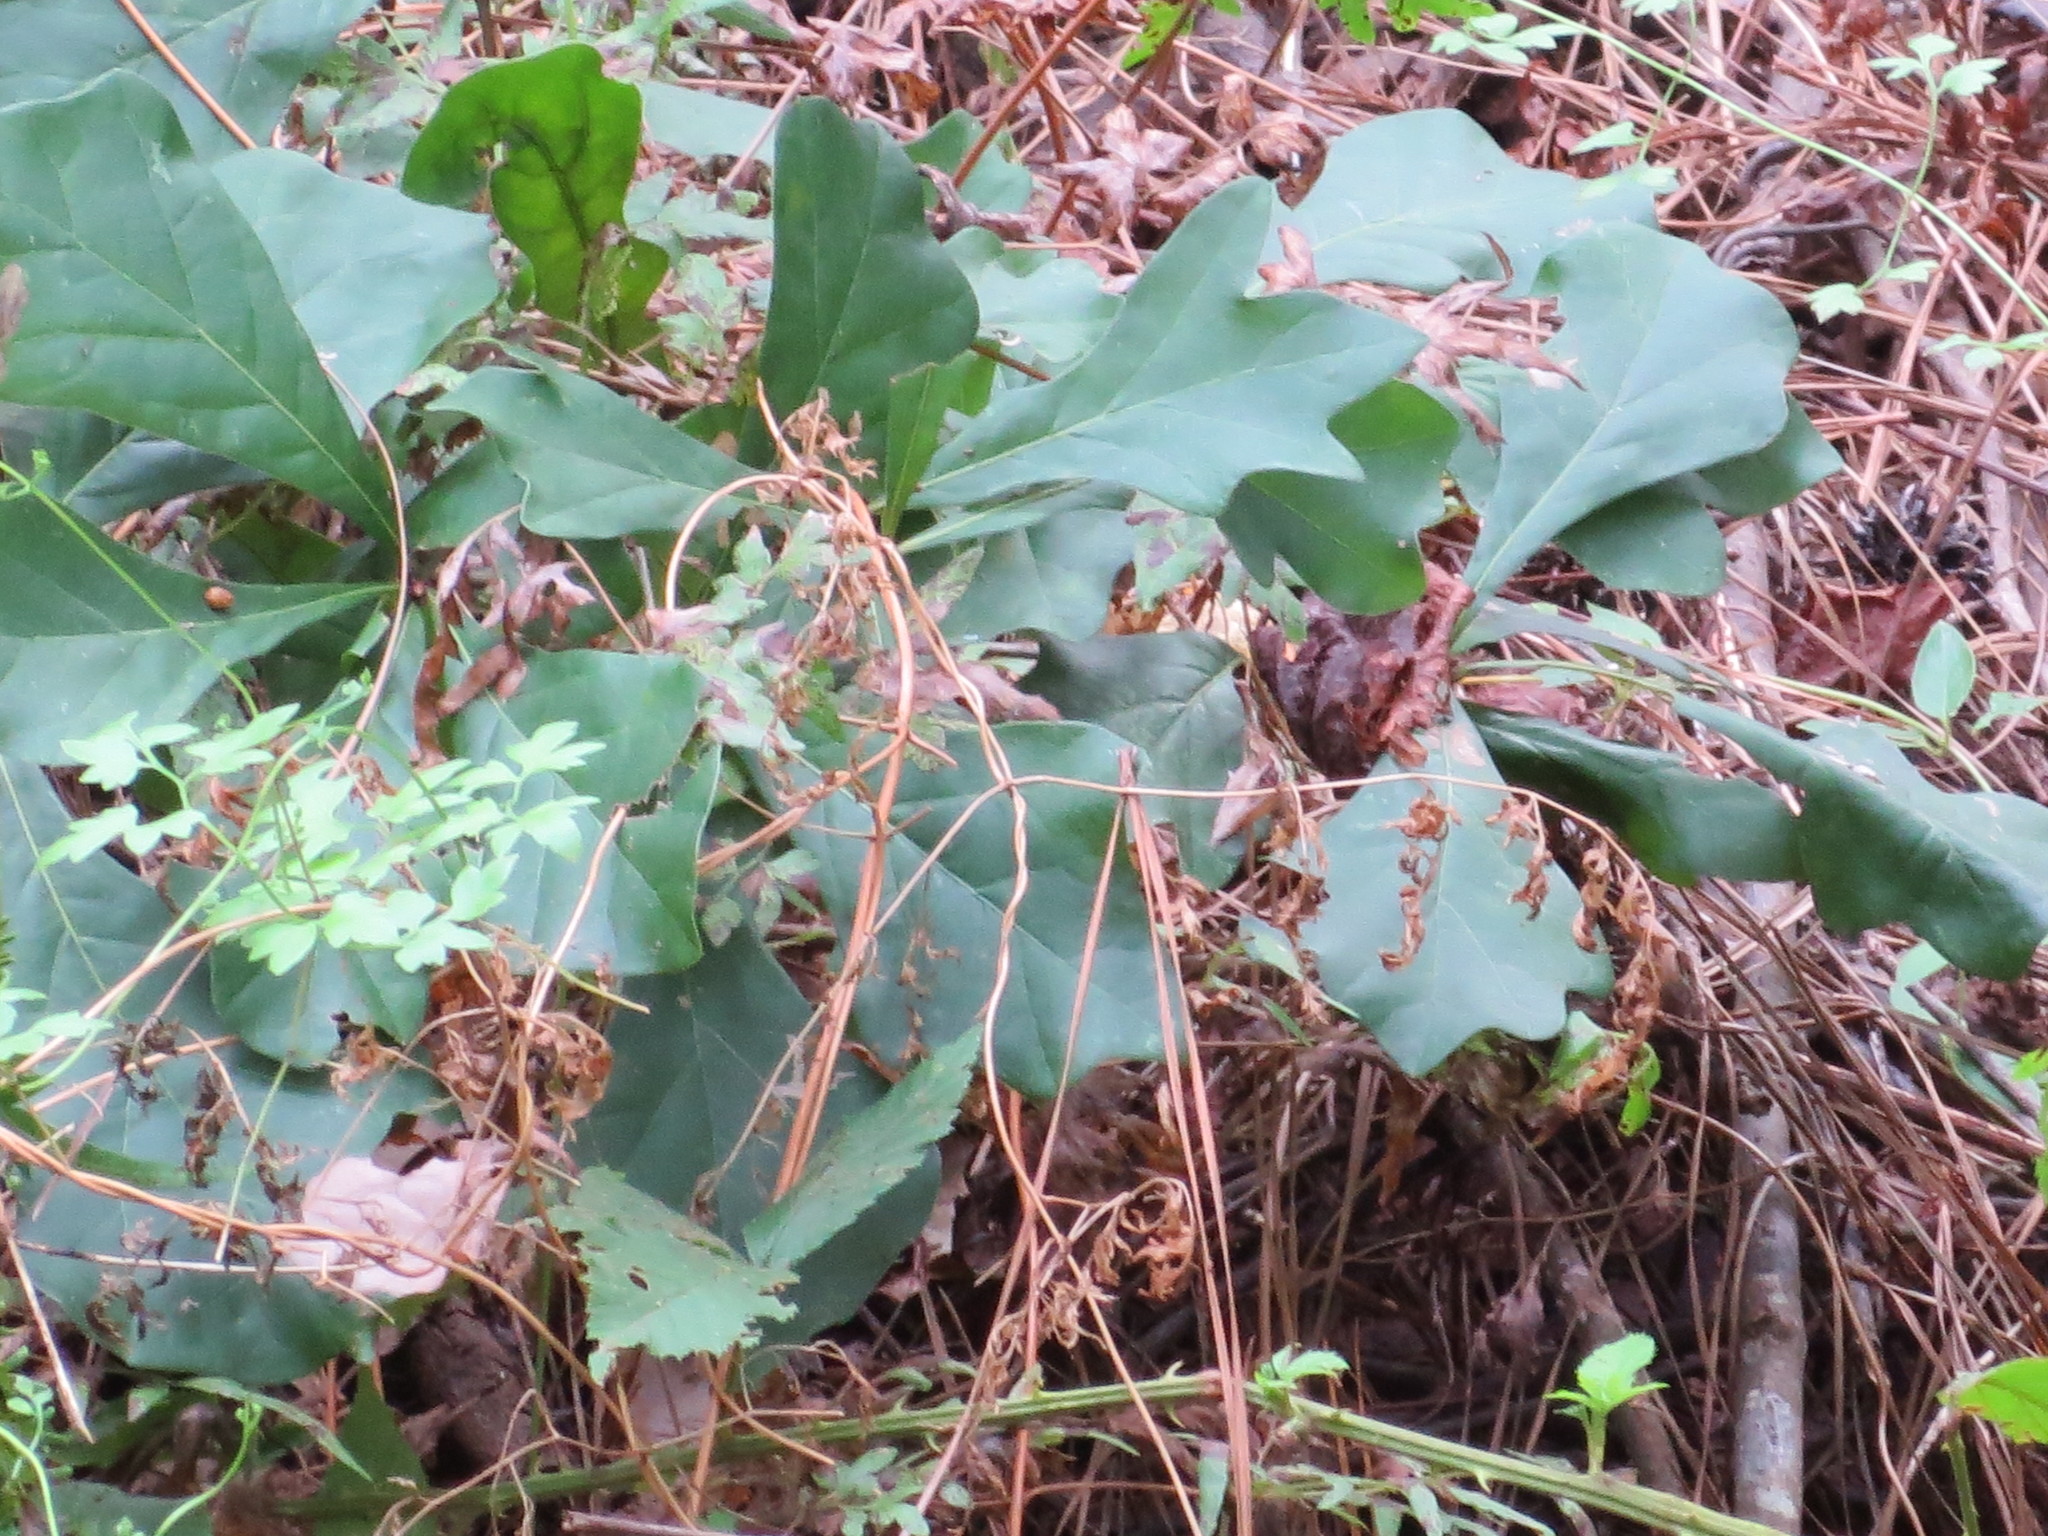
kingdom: Plantae
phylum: Tracheophyta
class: Magnoliopsida
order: Fagales
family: Fagaceae
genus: Quercus
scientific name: Quercus nigra
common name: Water oak
